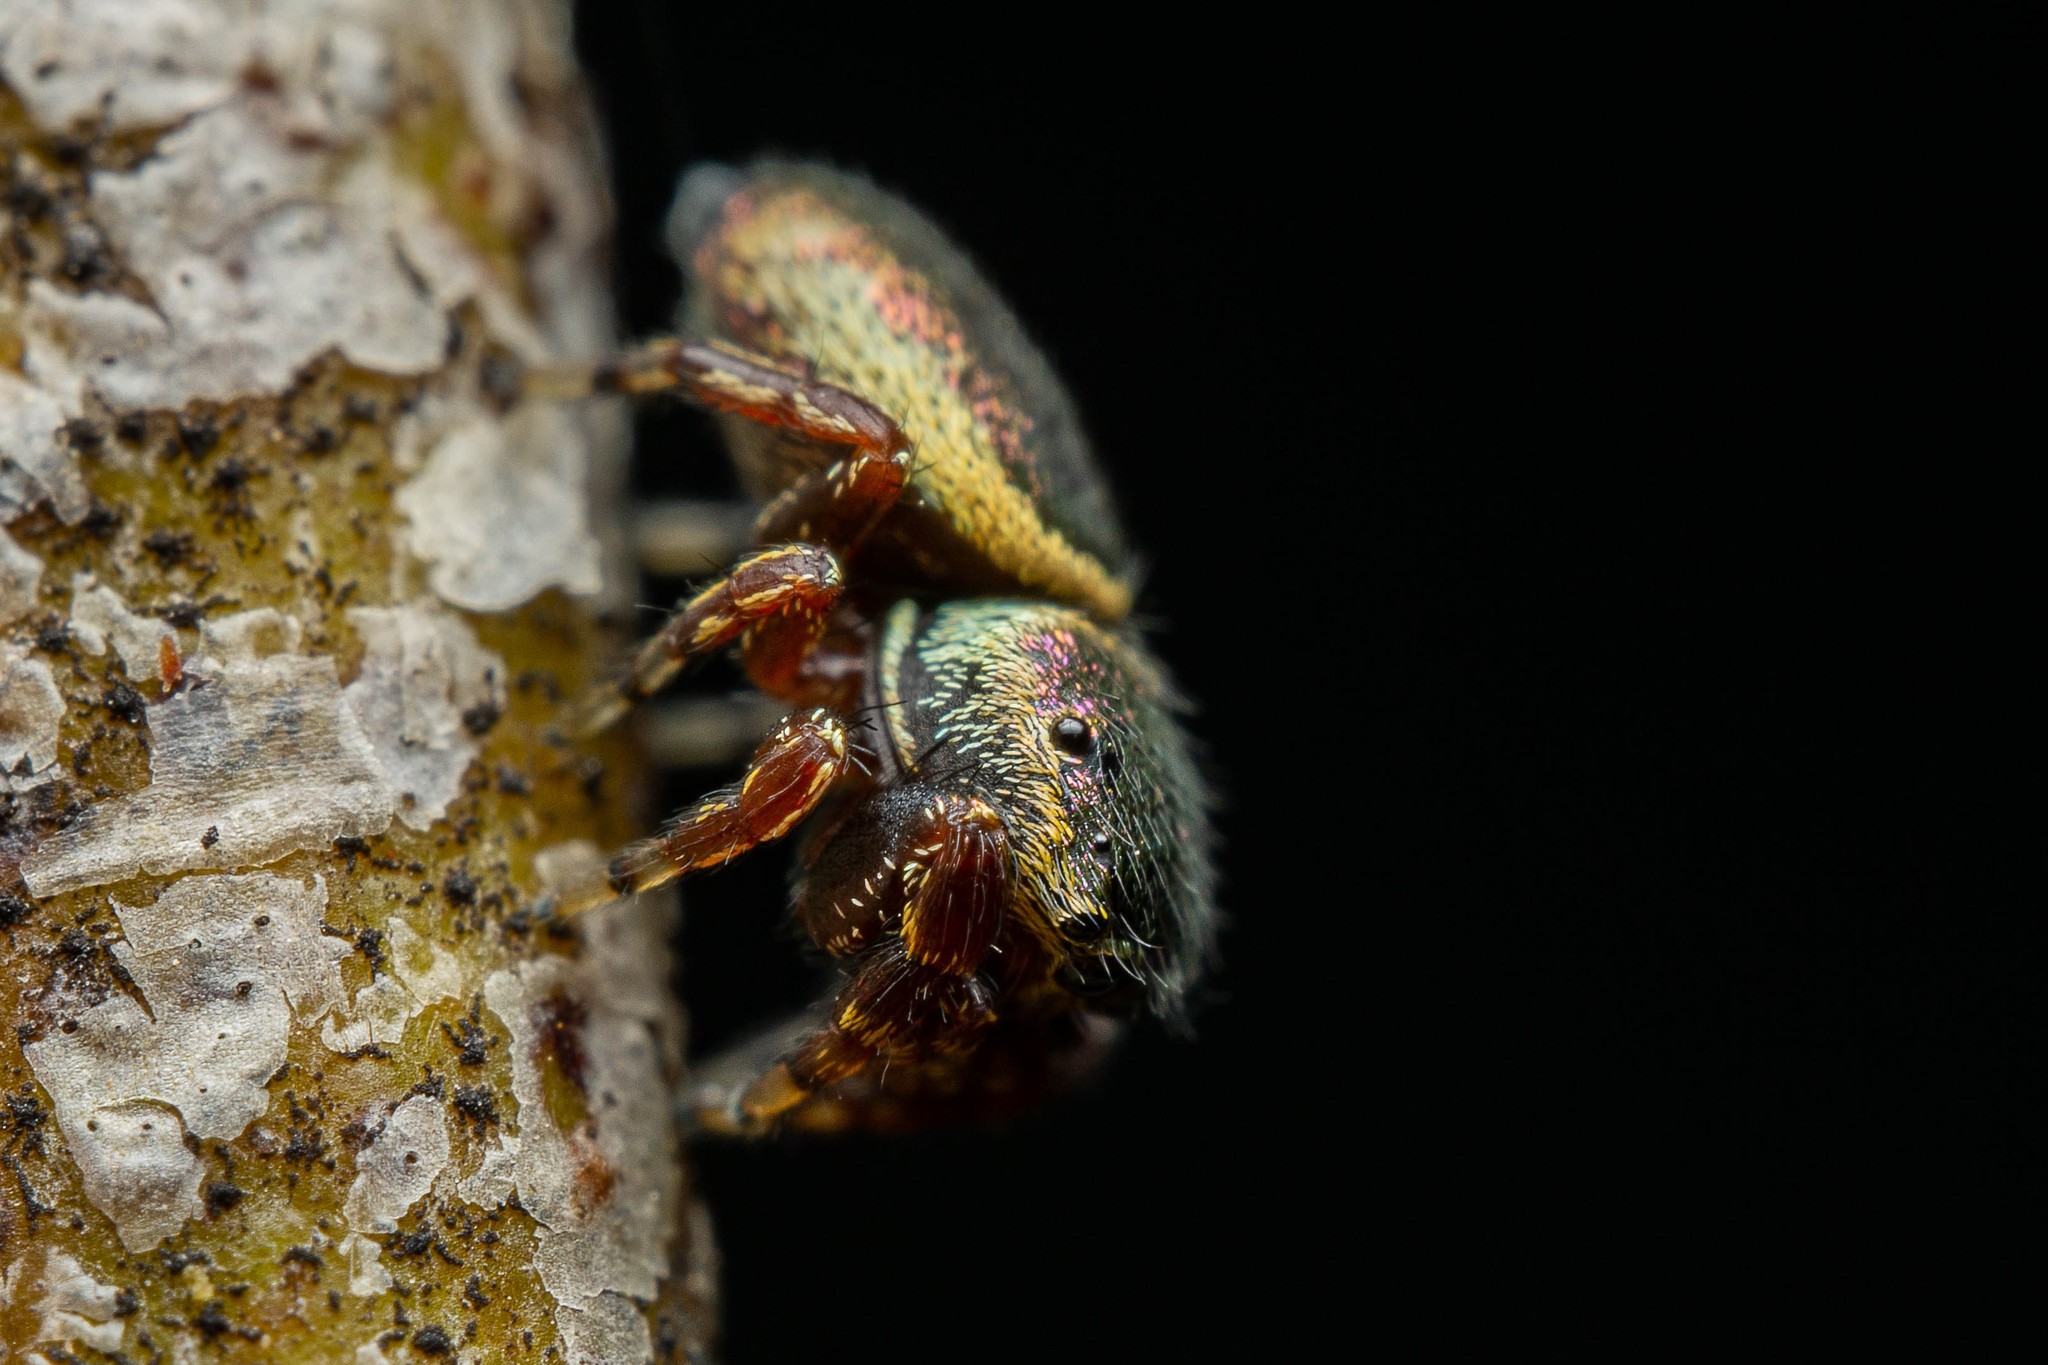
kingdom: Animalia
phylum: Arthropoda
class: Arachnida
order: Araneae
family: Salticidae
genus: Sassacus
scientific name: Sassacus papenhoei
